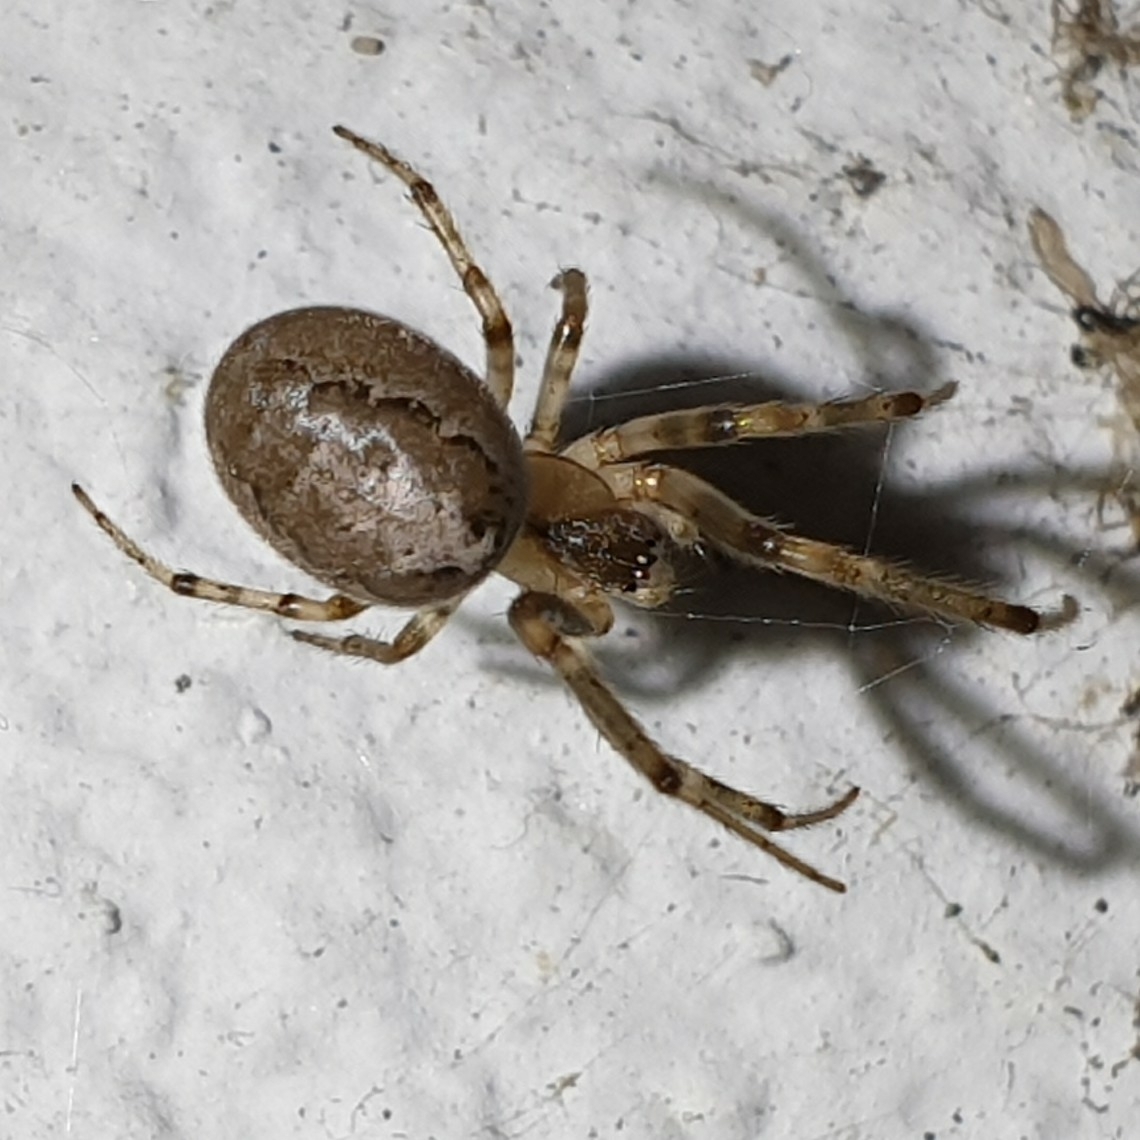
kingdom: Animalia
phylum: Arthropoda
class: Arachnida
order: Araneae
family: Araneidae
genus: Zygiella
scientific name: Zygiella x-notata
